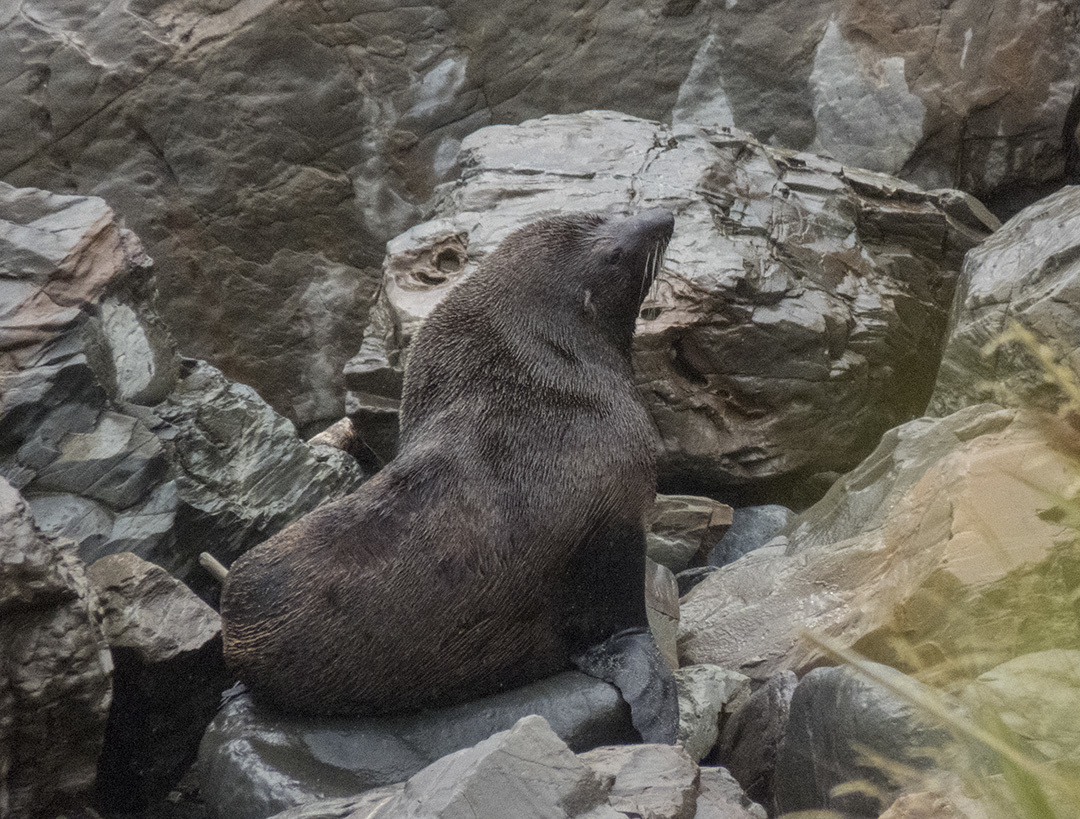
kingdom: Animalia
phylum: Chordata
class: Mammalia
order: Carnivora
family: Otariidae
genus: Arctocephalus
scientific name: Arctocephalus forsteri
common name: New zealand fur seal
